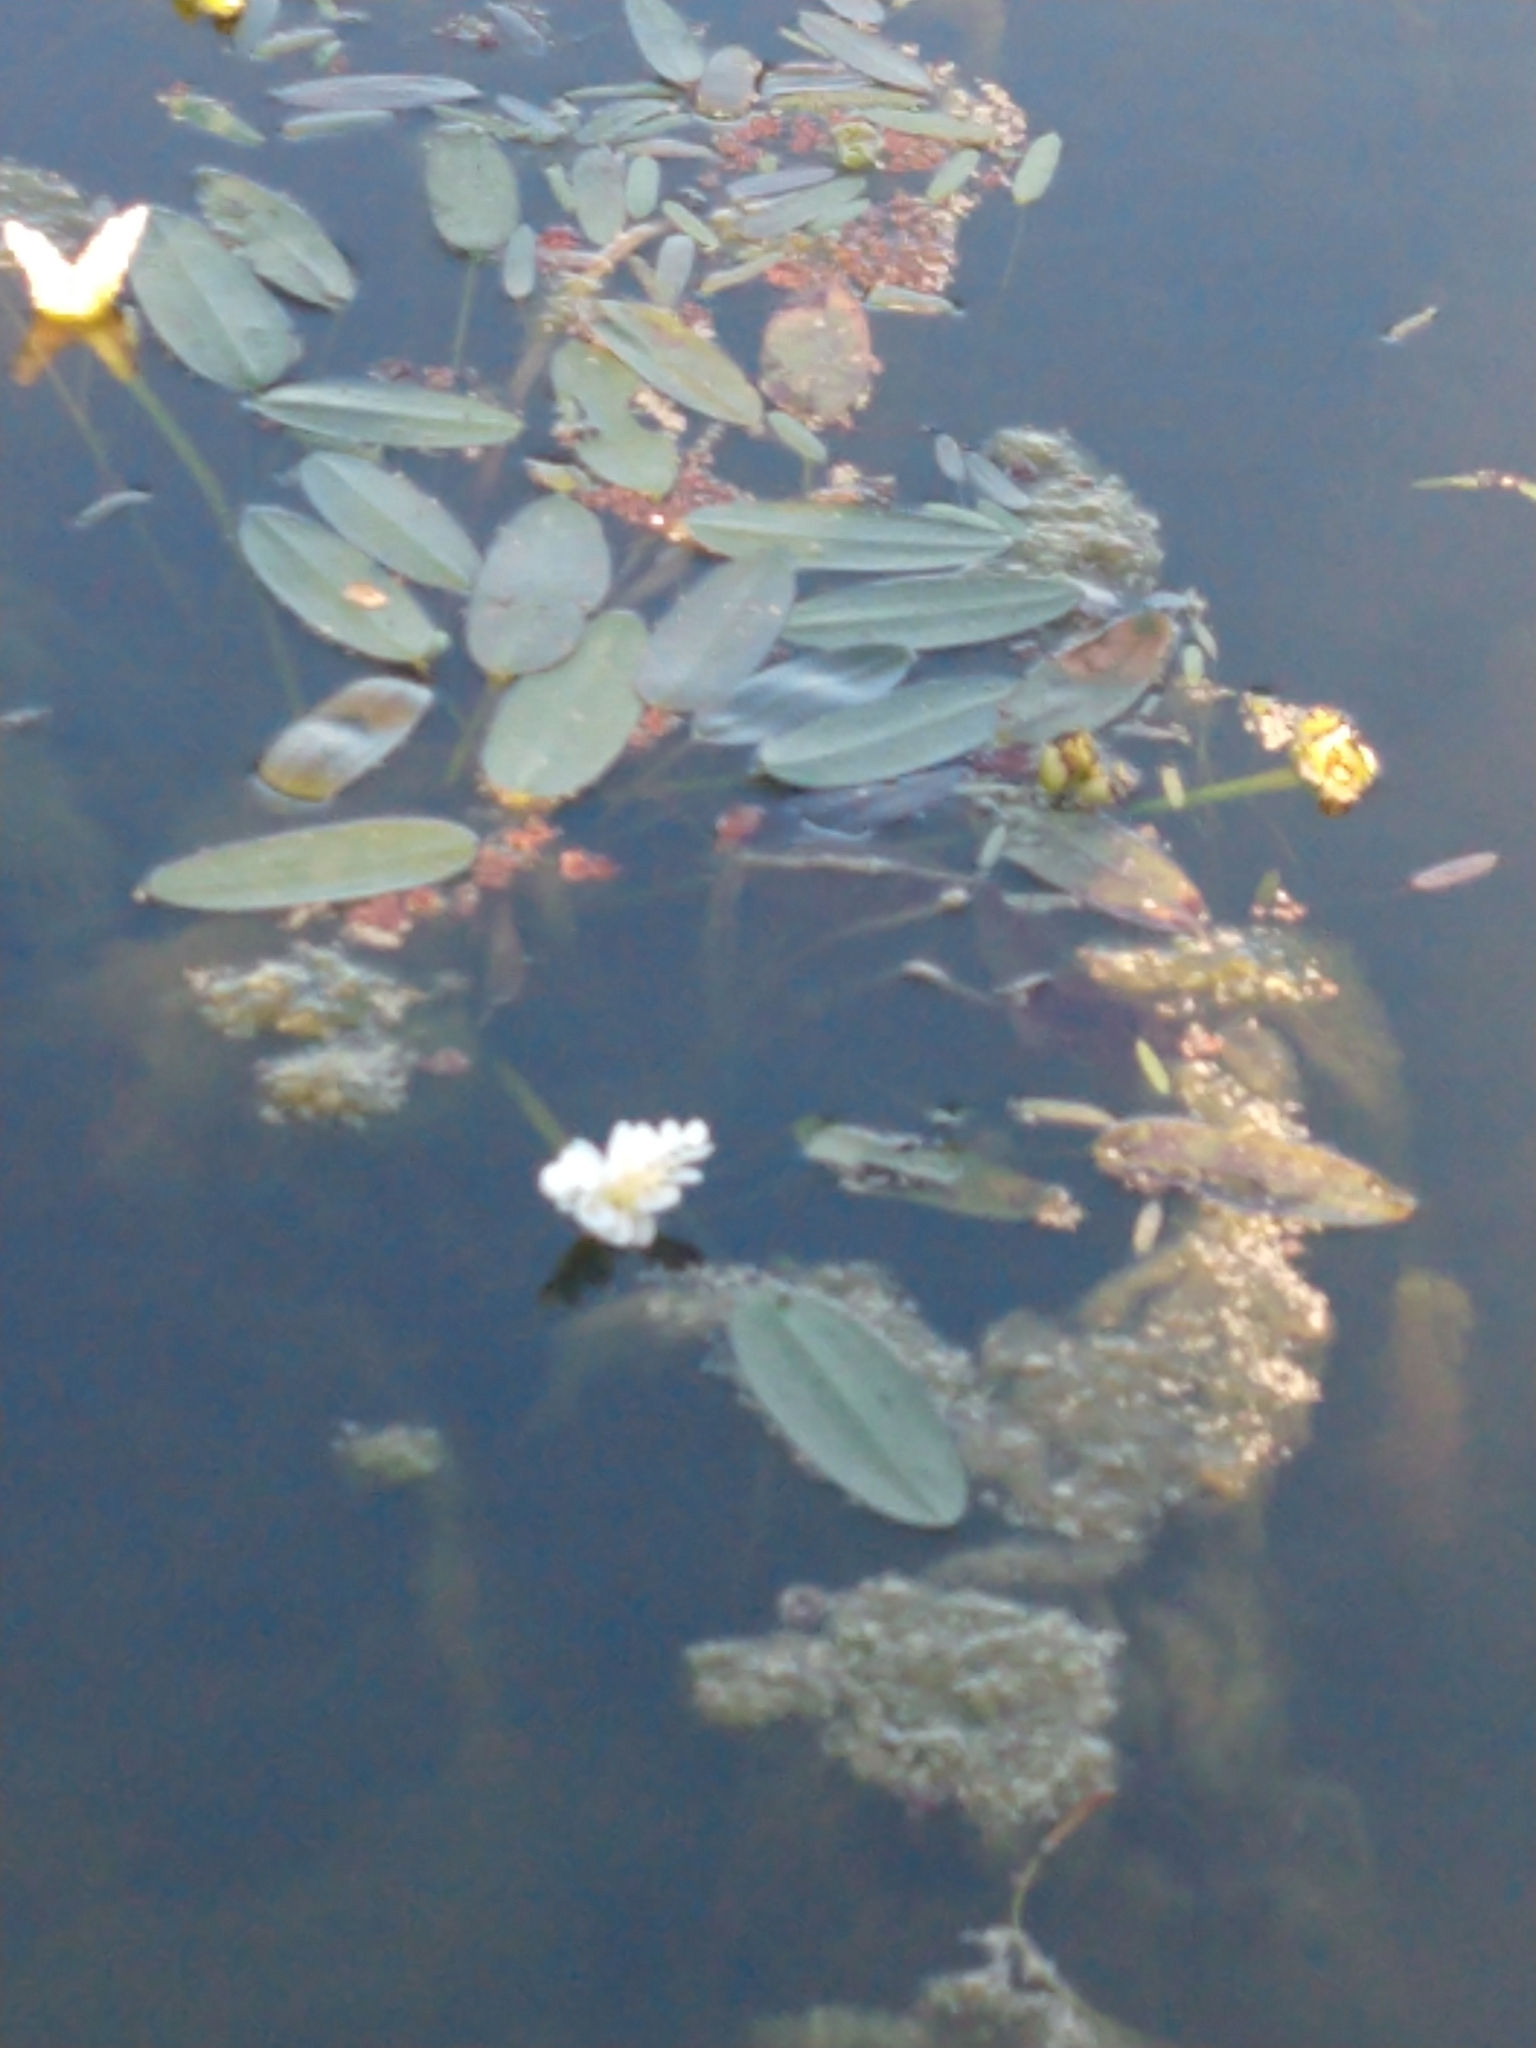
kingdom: Plantae
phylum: Tracheophyta
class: Liliopsida
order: Alismatales
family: Aponogetonaceae
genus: Aponogeton
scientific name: Aponogeton distachyos
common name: Cape-pondweed
